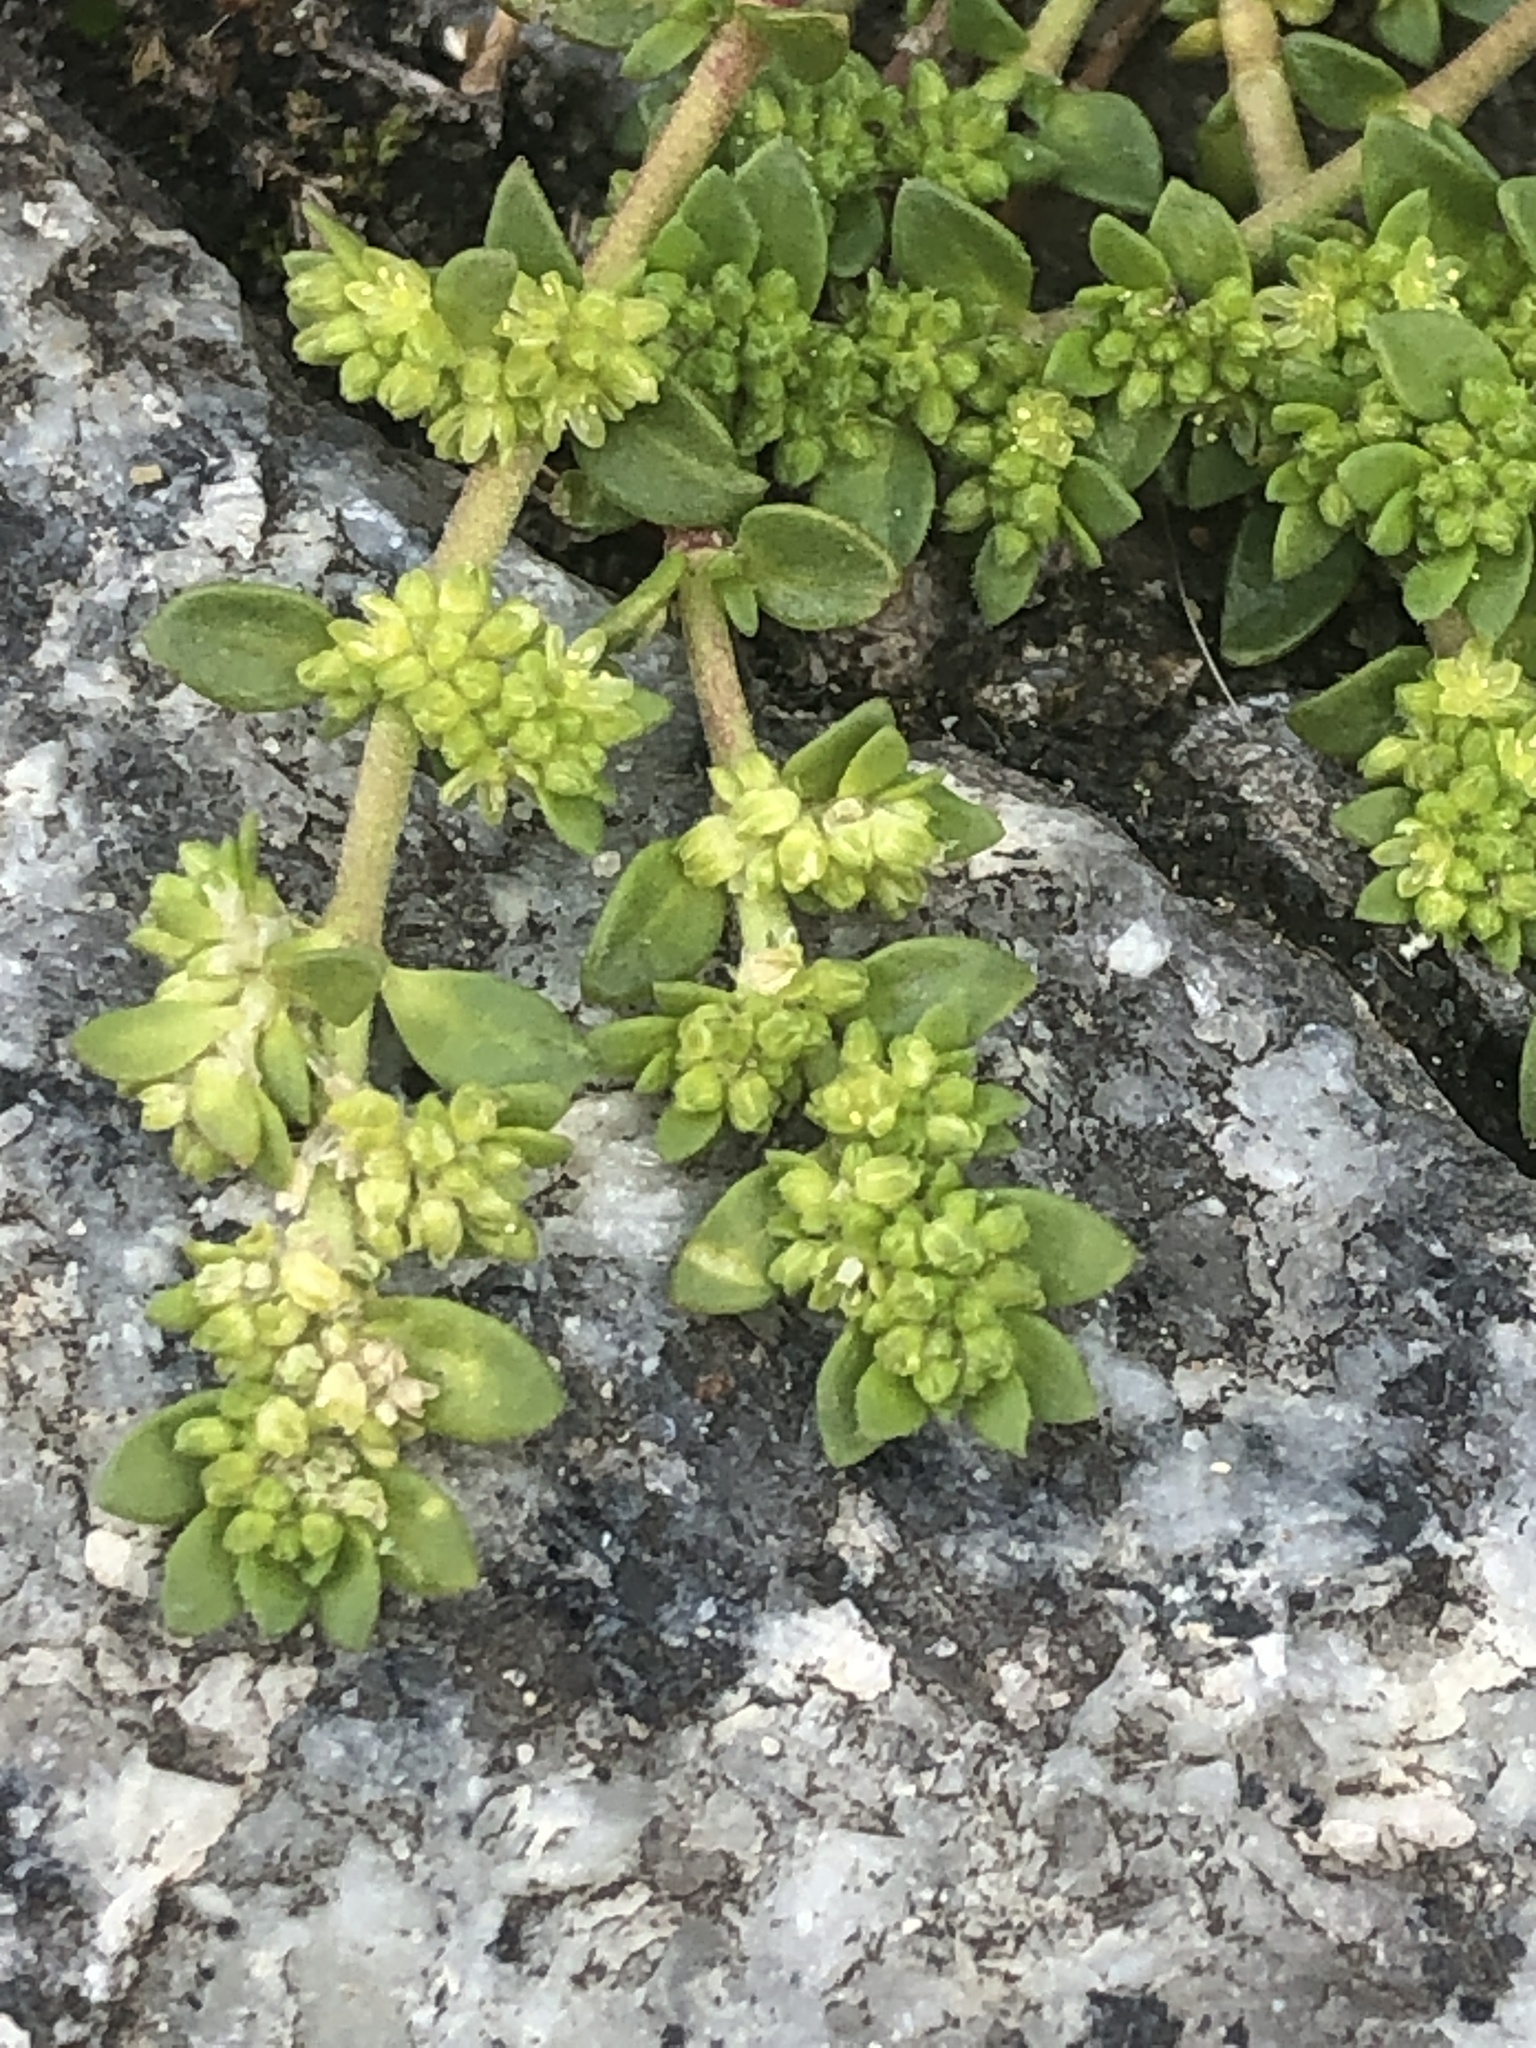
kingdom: Plantae
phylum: Tracheophyta
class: Magnoliopsida
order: Caryophyllales
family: Caryophyllaceae
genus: Herniaria
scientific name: Herniaria glabra
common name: Smooth rupturewort
